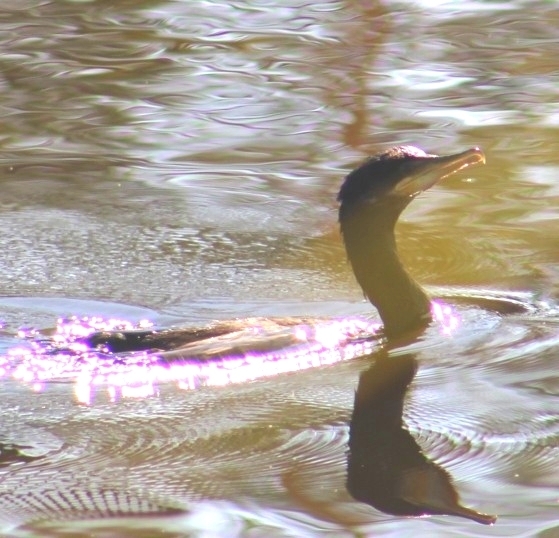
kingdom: Animalia
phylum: Chordata
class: Aves
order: Suliformes
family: Phalacrocoracidae
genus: Phalacrocorax
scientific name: Phalacrocorax brasilianus
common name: Neotropic cormorant
